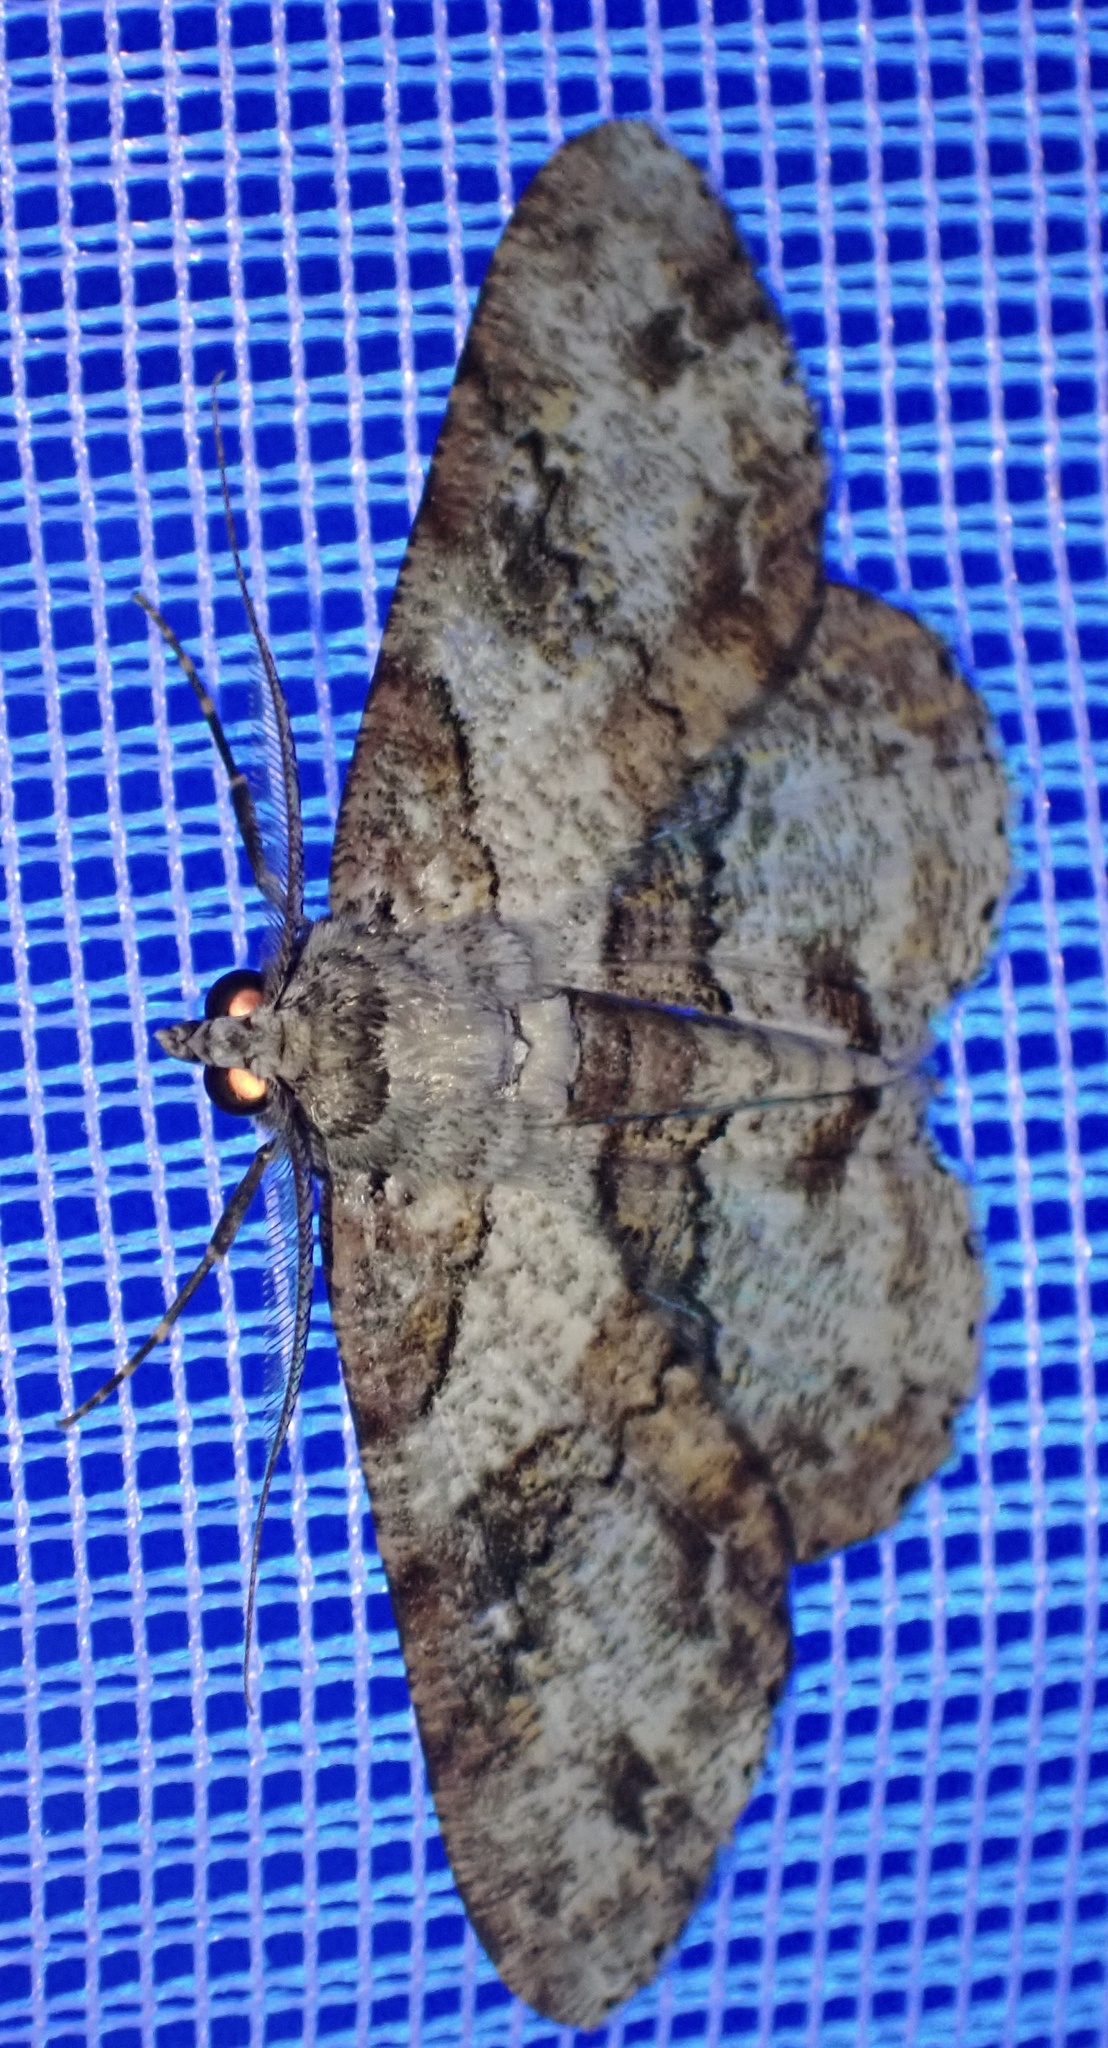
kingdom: Animalia
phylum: Arthropoda
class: Insecta
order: Lepidoptera
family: Geometridae
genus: Cleora
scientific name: Cleora repetita
